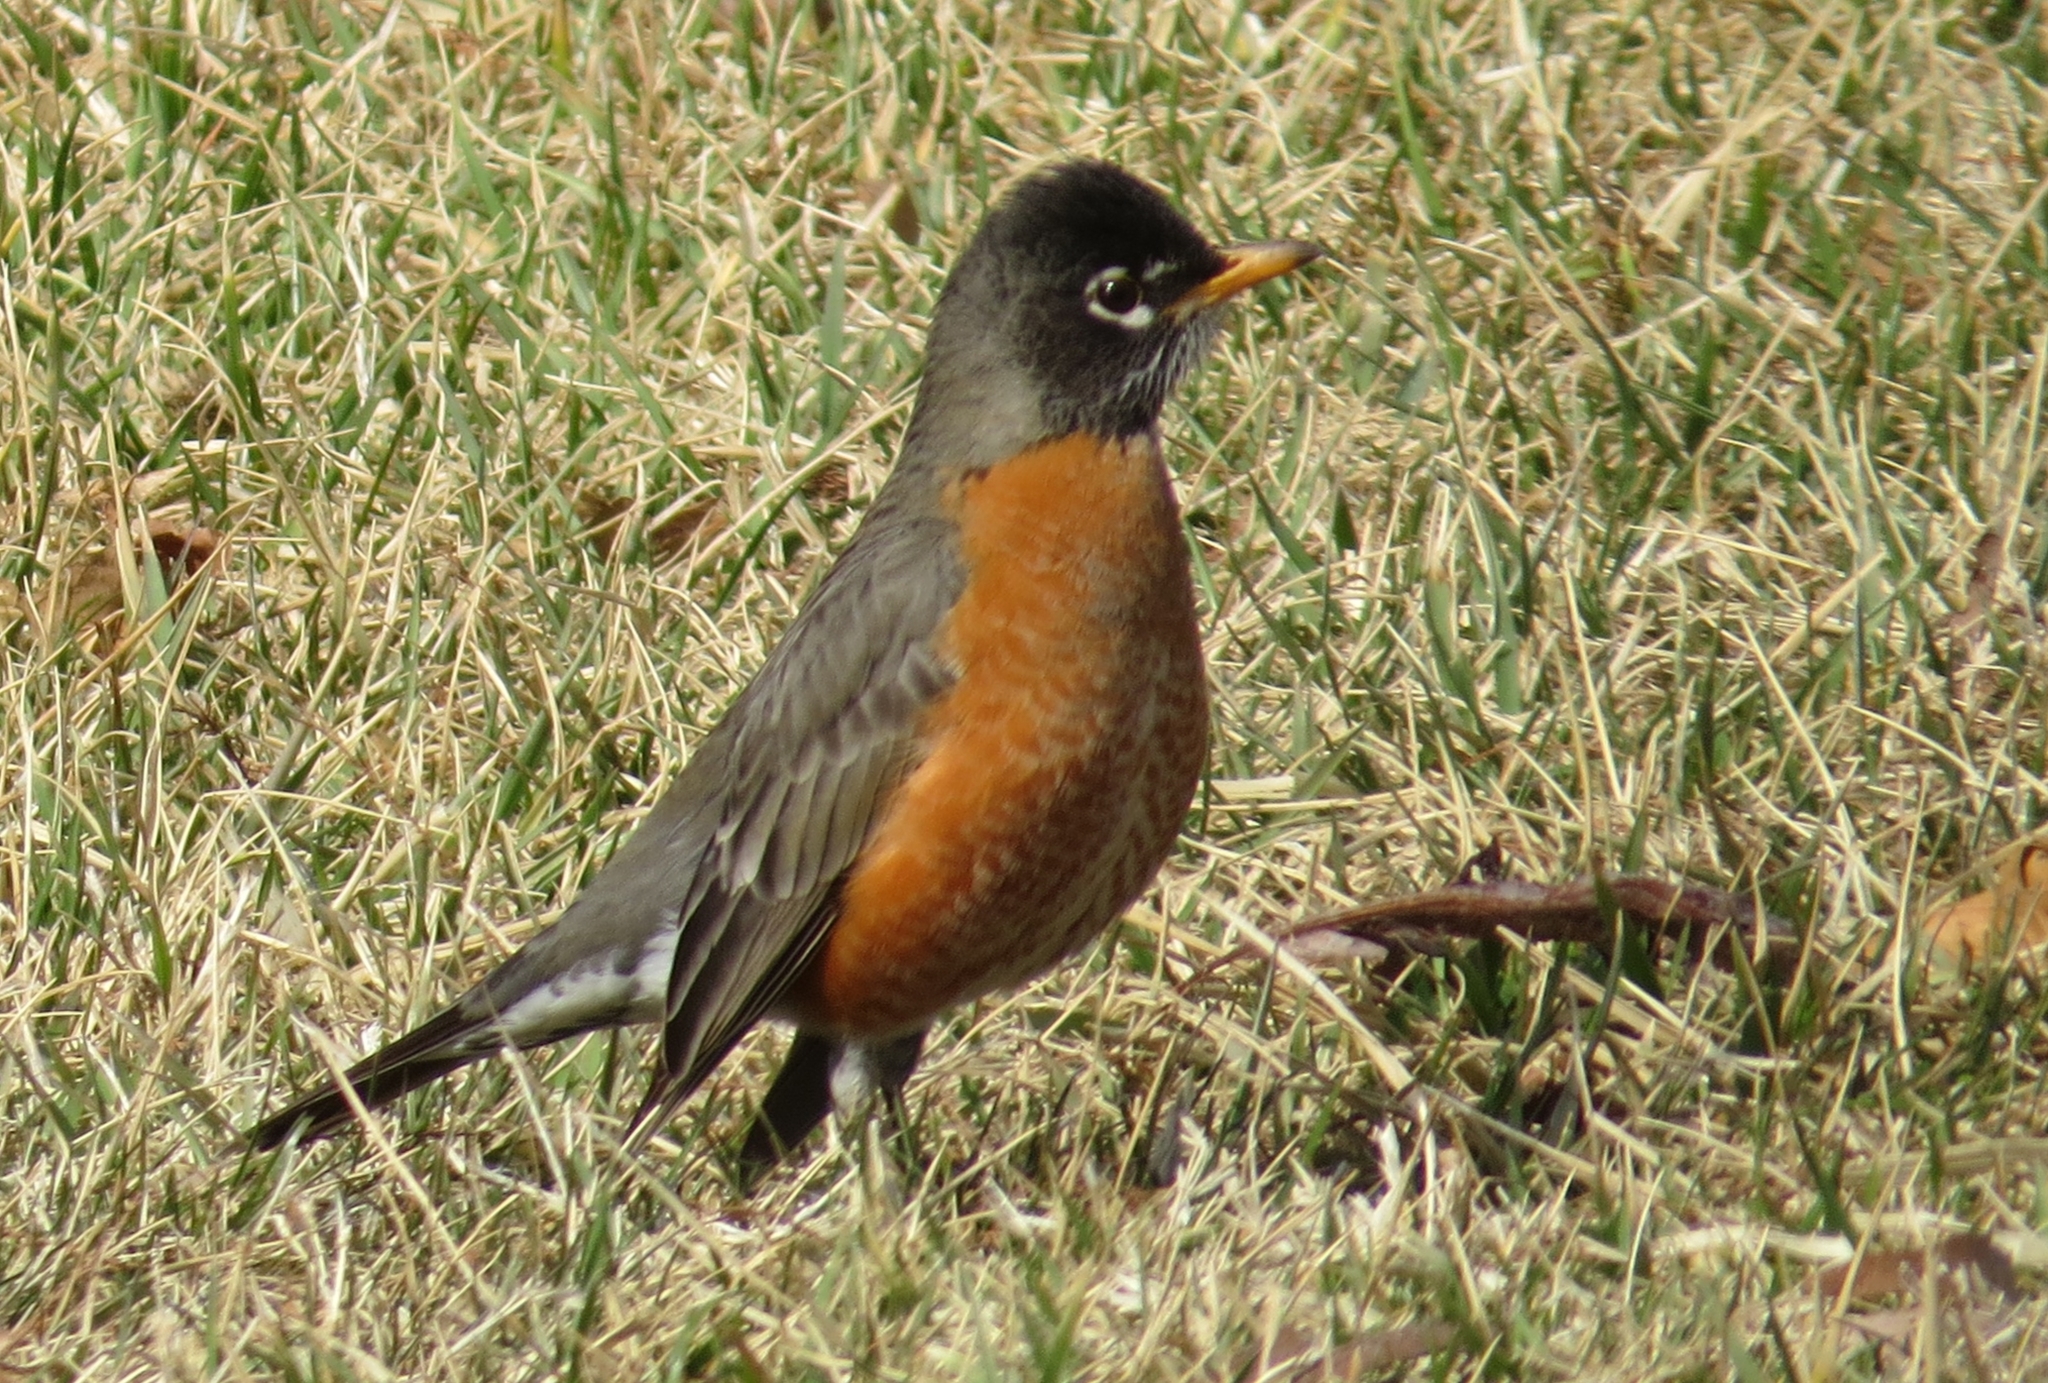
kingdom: Animalia
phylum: Chordata
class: Aves
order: Passeriformes
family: Turdidae
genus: Turdus
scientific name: Turdus migratorius
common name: American robin
